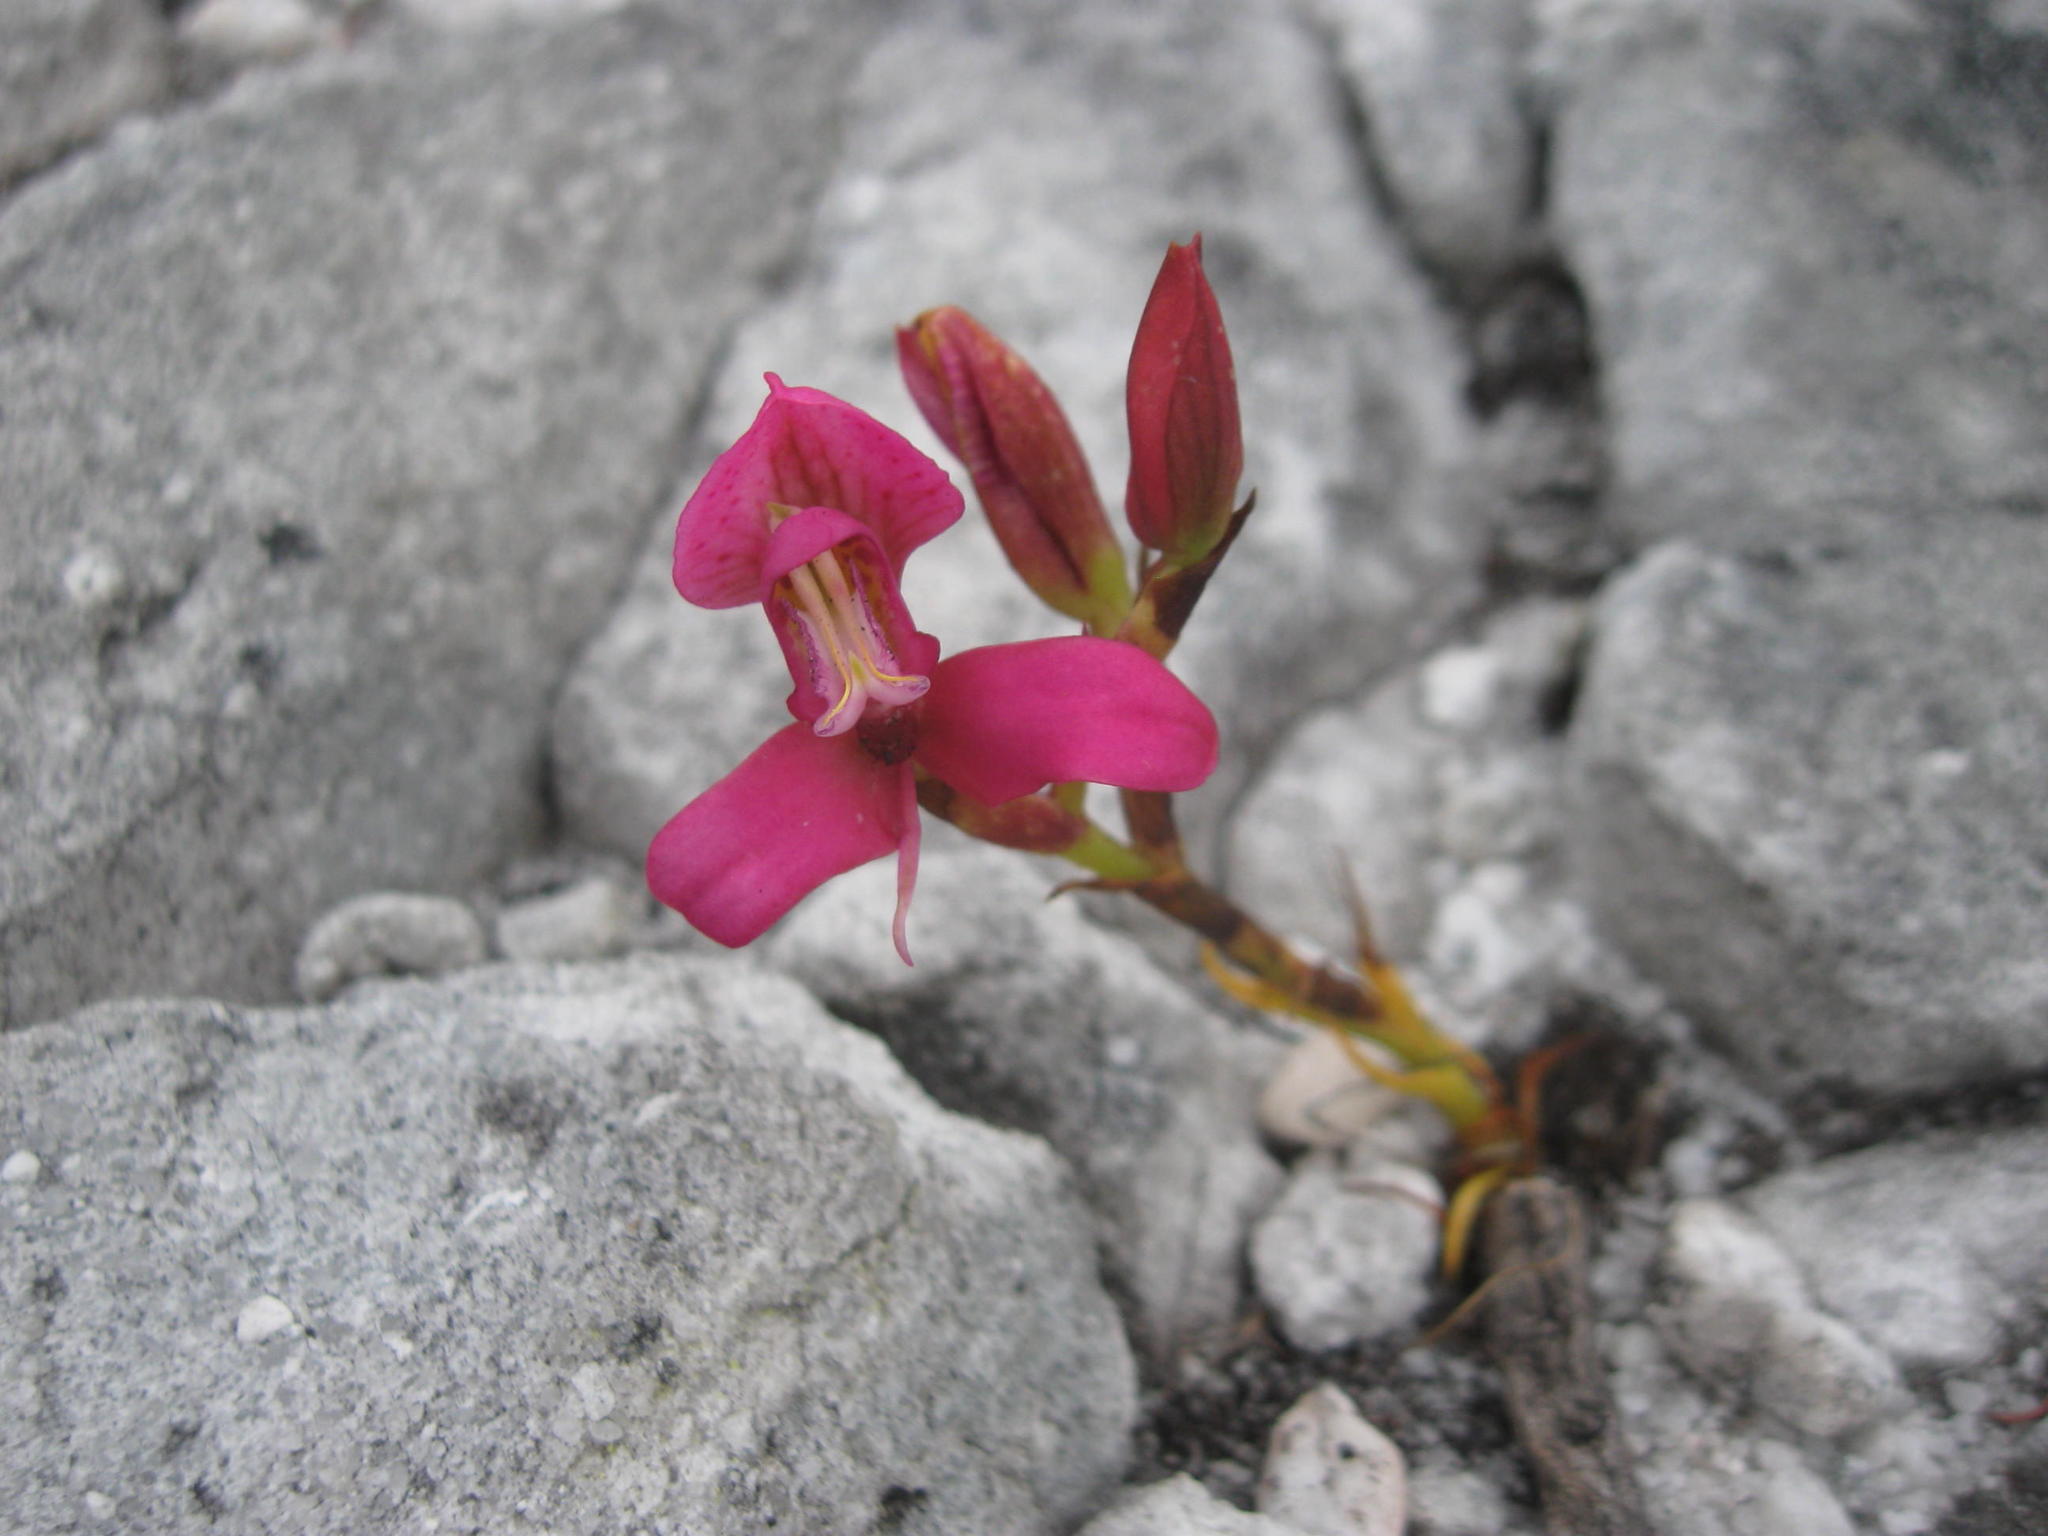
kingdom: Plantae
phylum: Tracheophyta
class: Liliopsida
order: Asparagales
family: Orchidaceae
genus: Disa
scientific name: Disa filicornis
